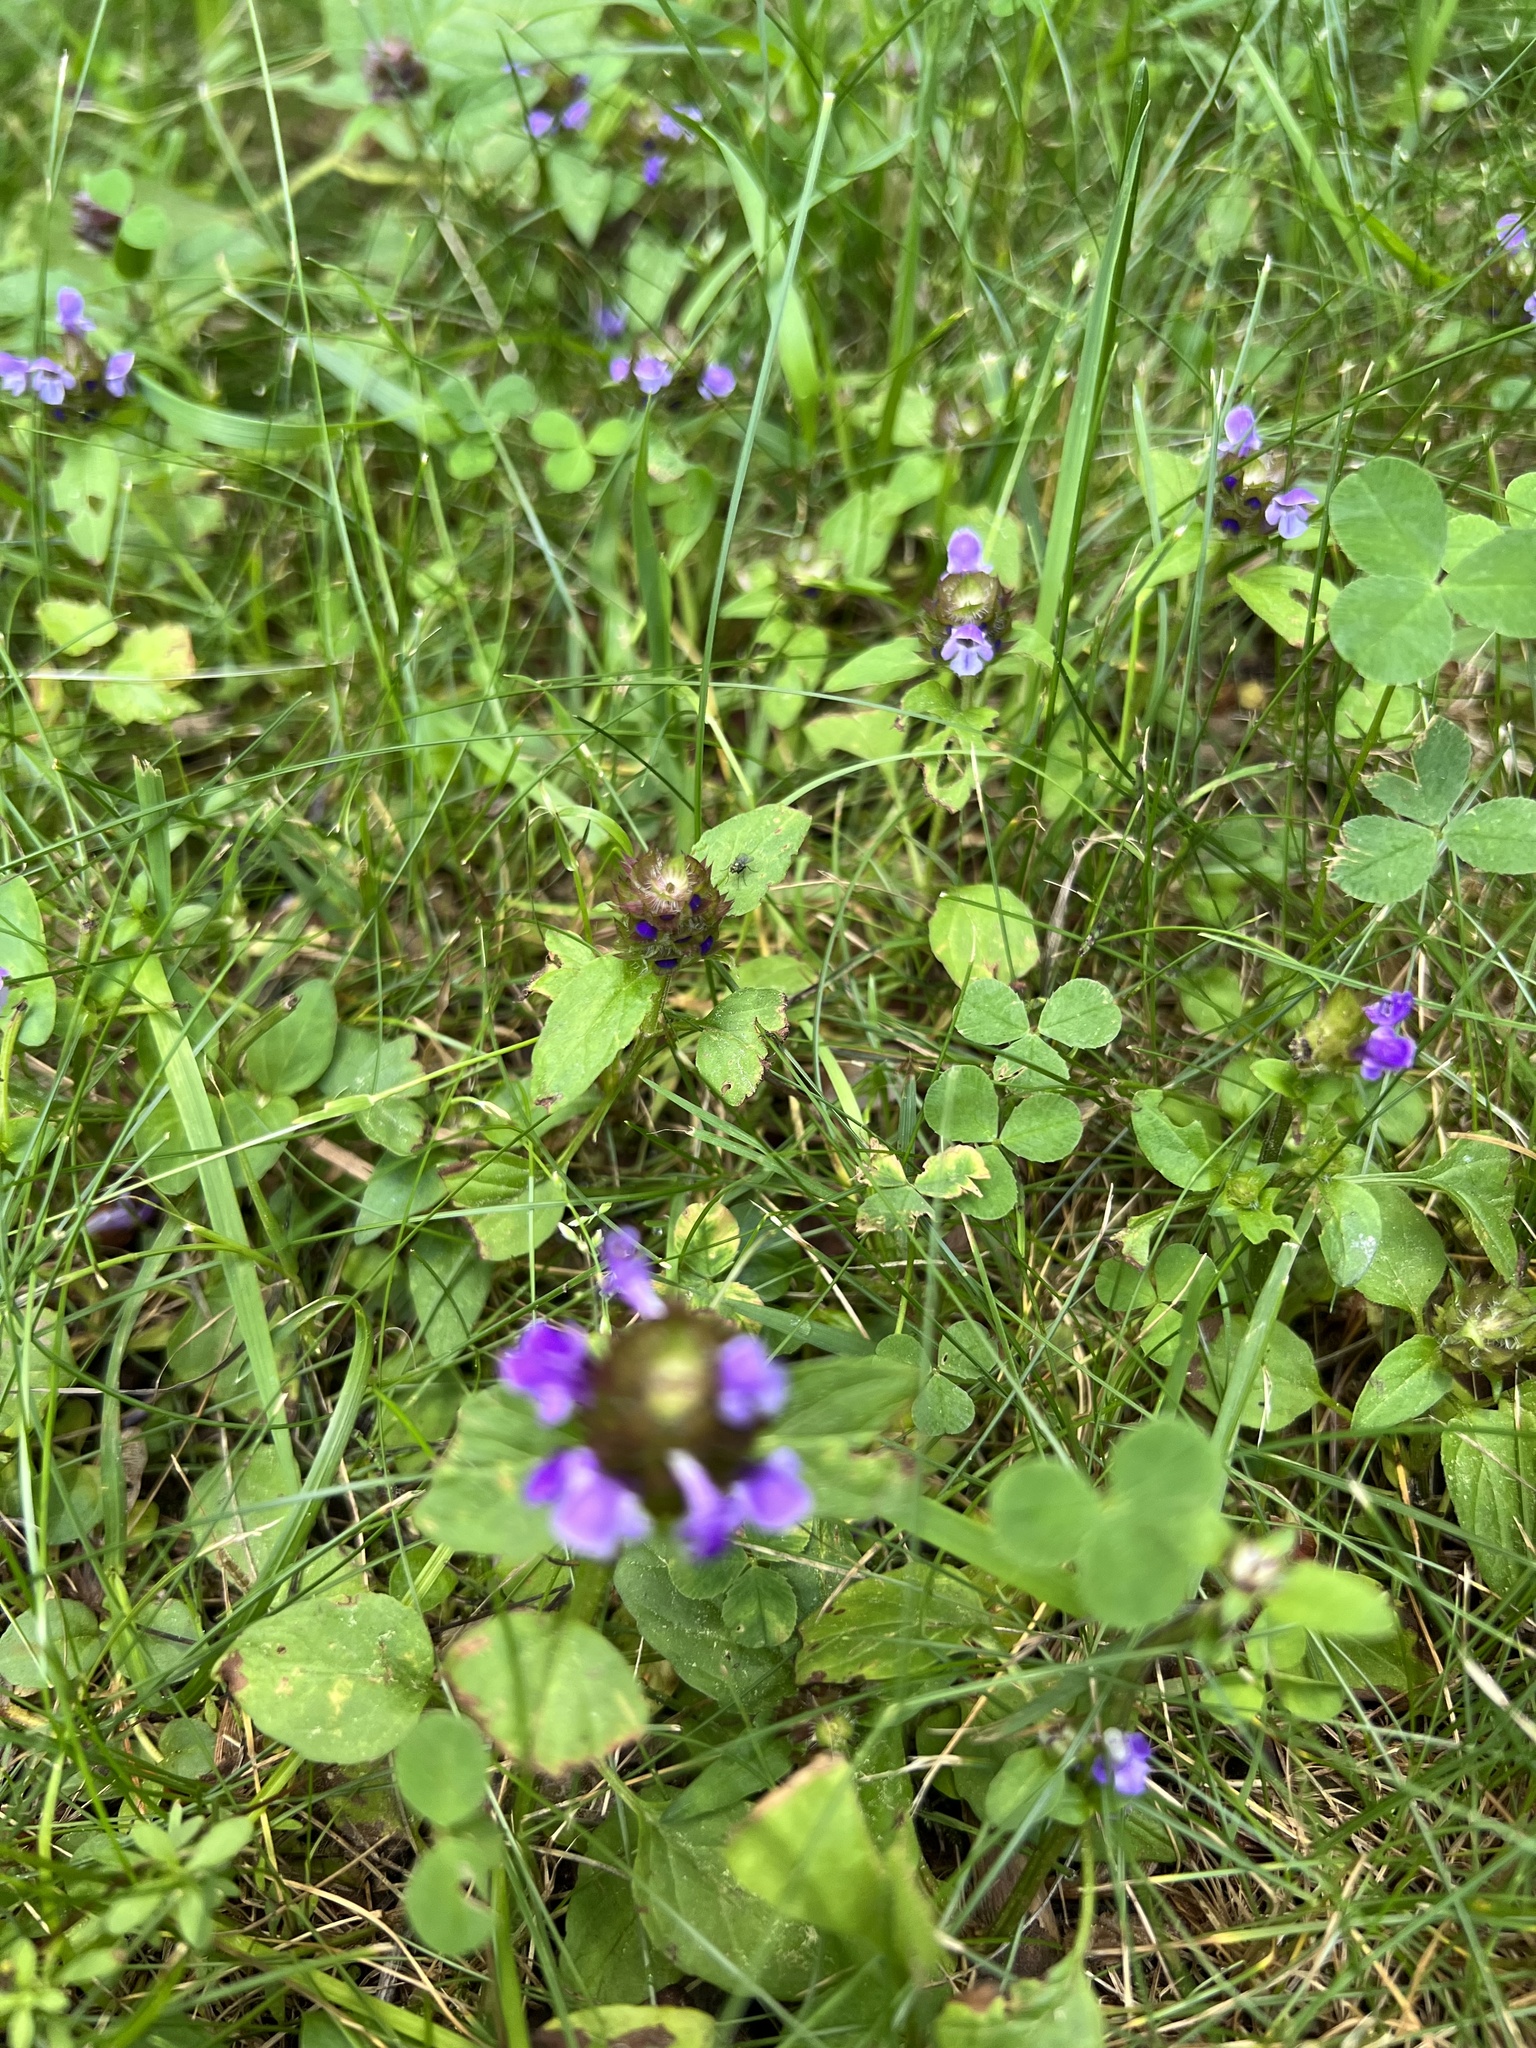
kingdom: Plantae
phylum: Tracheophyta
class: Magnoliopsida
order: Lamiales
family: Lamiaceae
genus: Prunella
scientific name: Prunella vulgaris
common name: Heal-all
